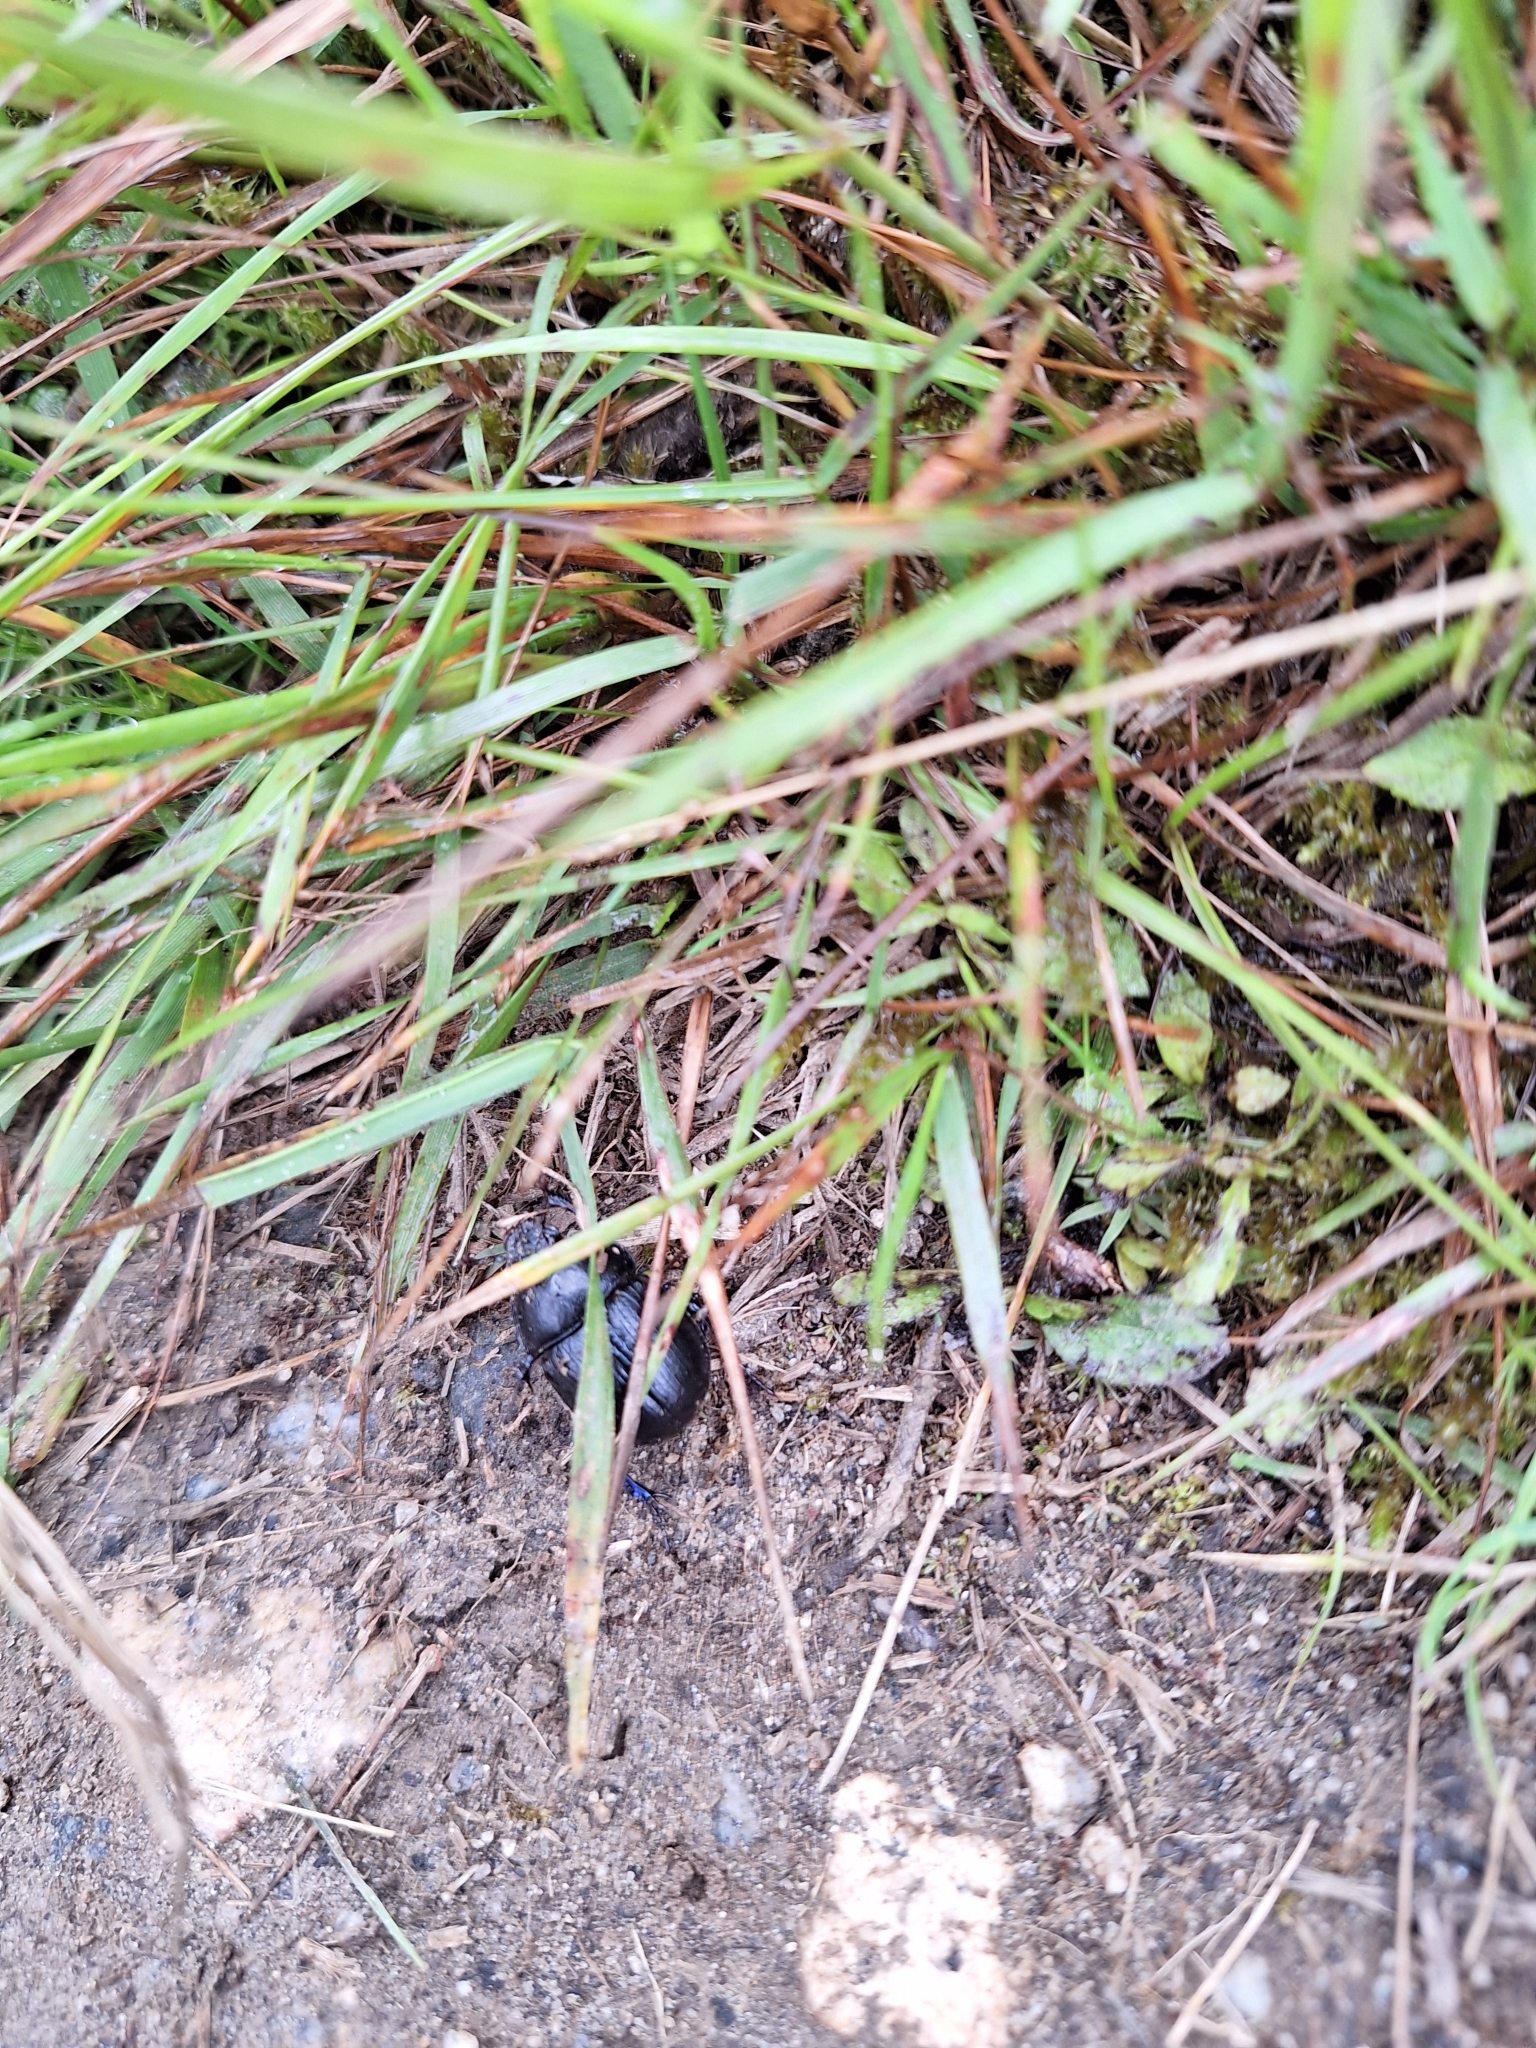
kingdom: Animalia
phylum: Arthropoda
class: Insecta
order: Coleoptera
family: Geotrupidae
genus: Anoplotrupes
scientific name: Anoplotrupes stercorosus
